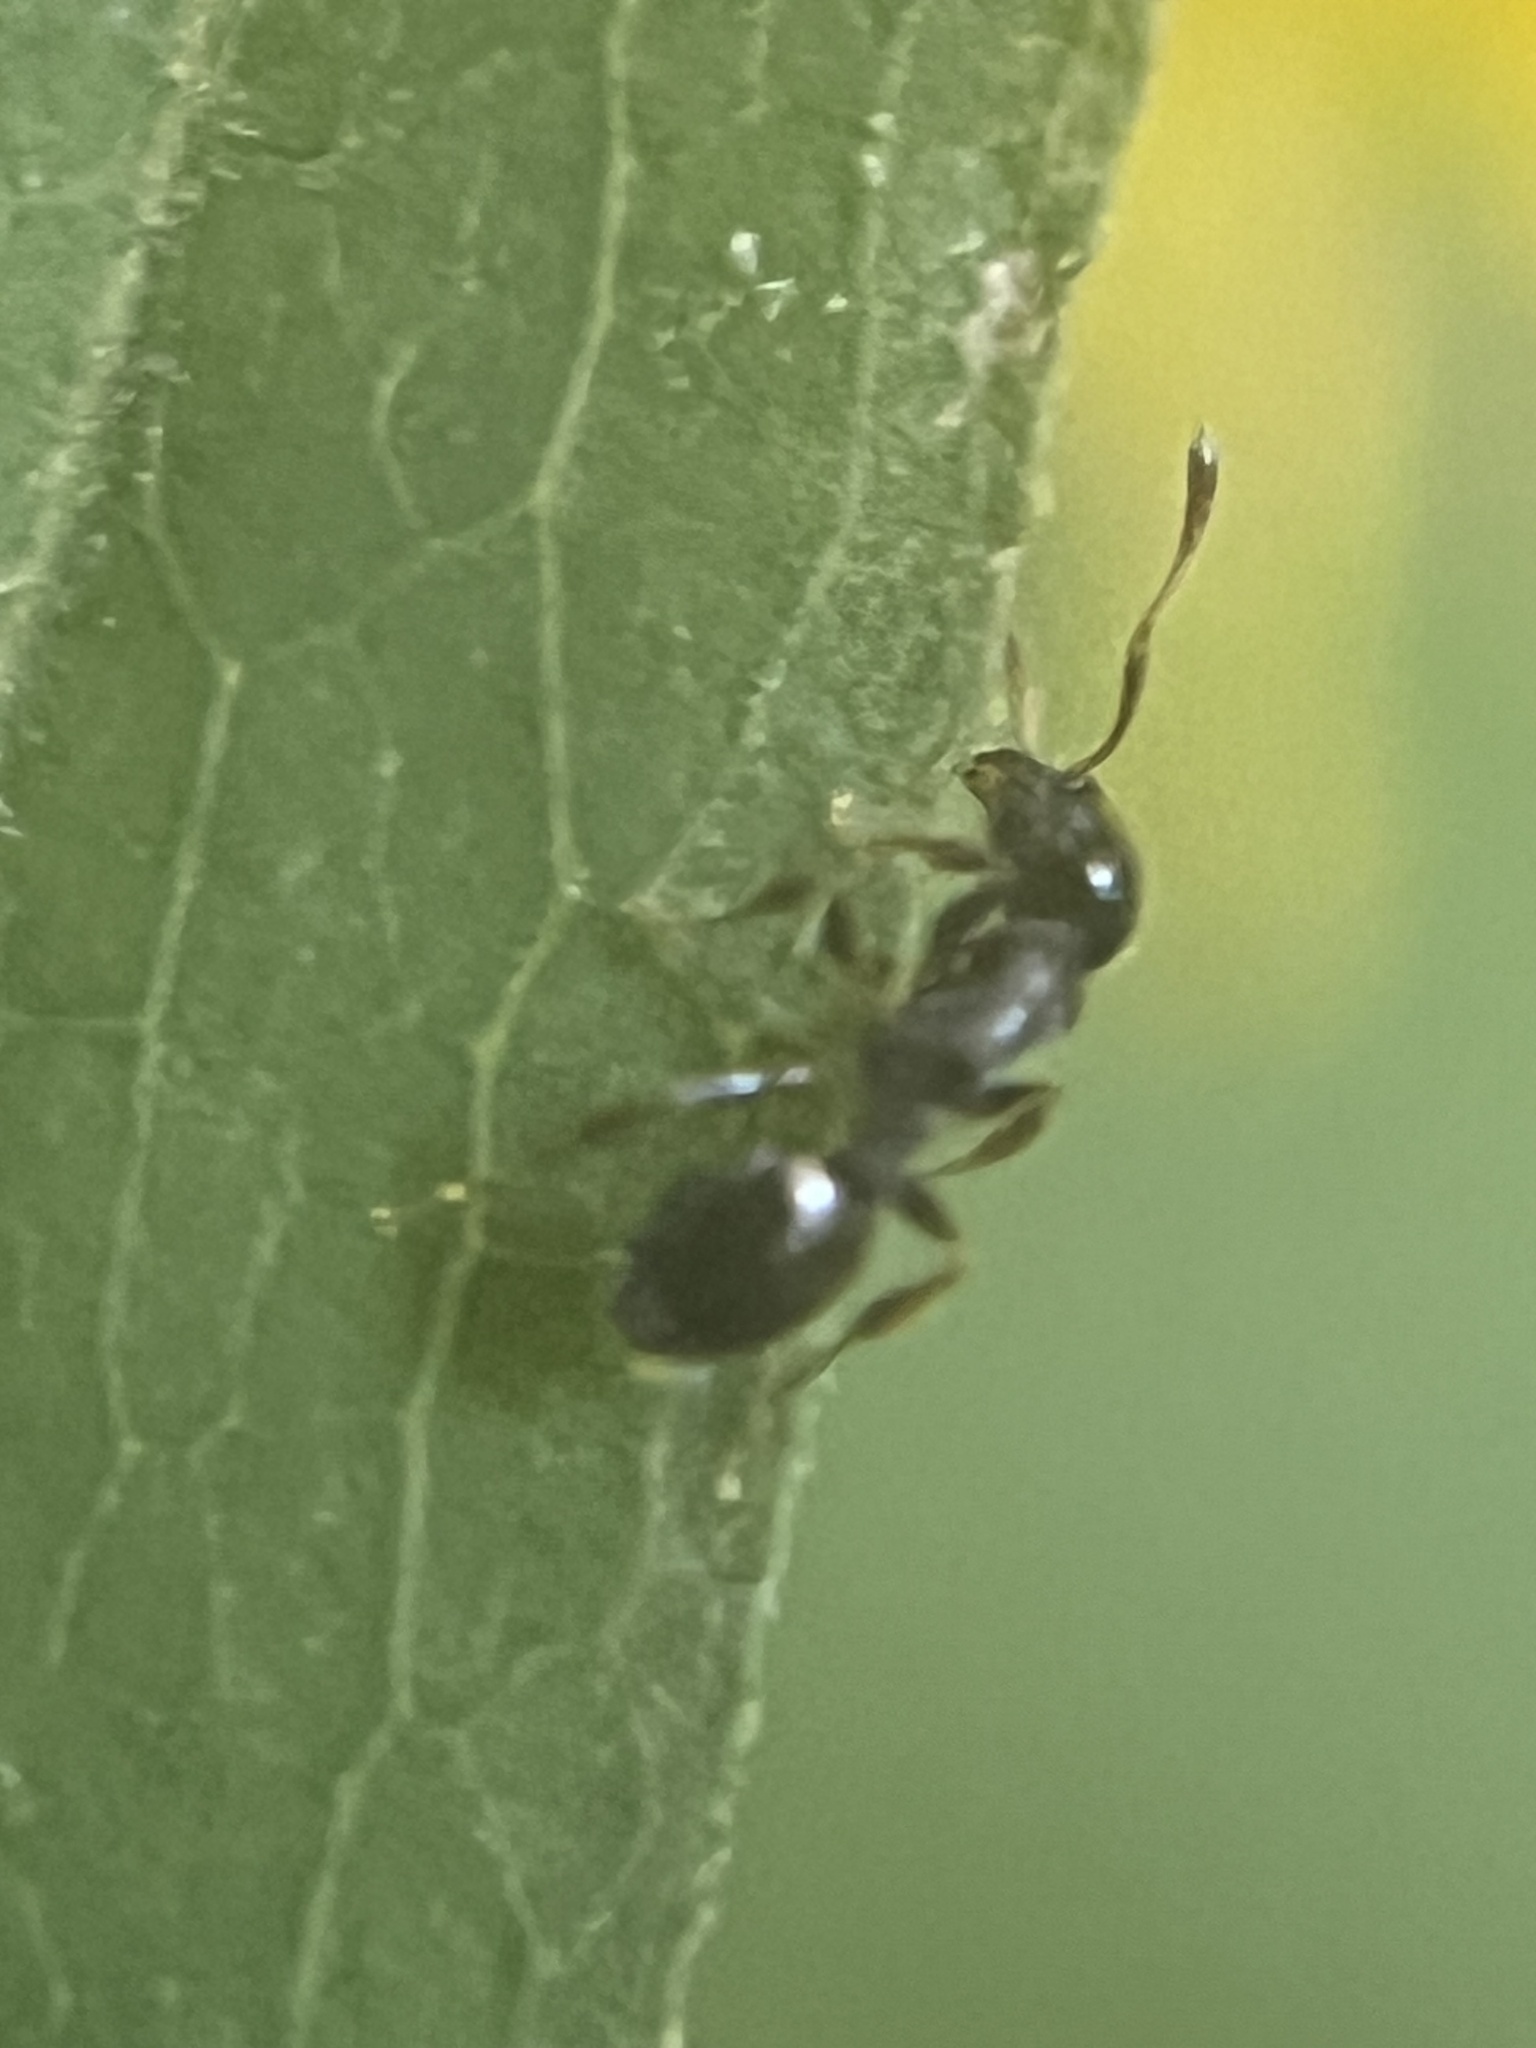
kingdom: Animalia
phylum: Arthropoda
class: Insecta
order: Hymenoptera
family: Formicidae
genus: Temnothorax
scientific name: Temnothorax longispinosus
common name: Long-spined acorn ant
